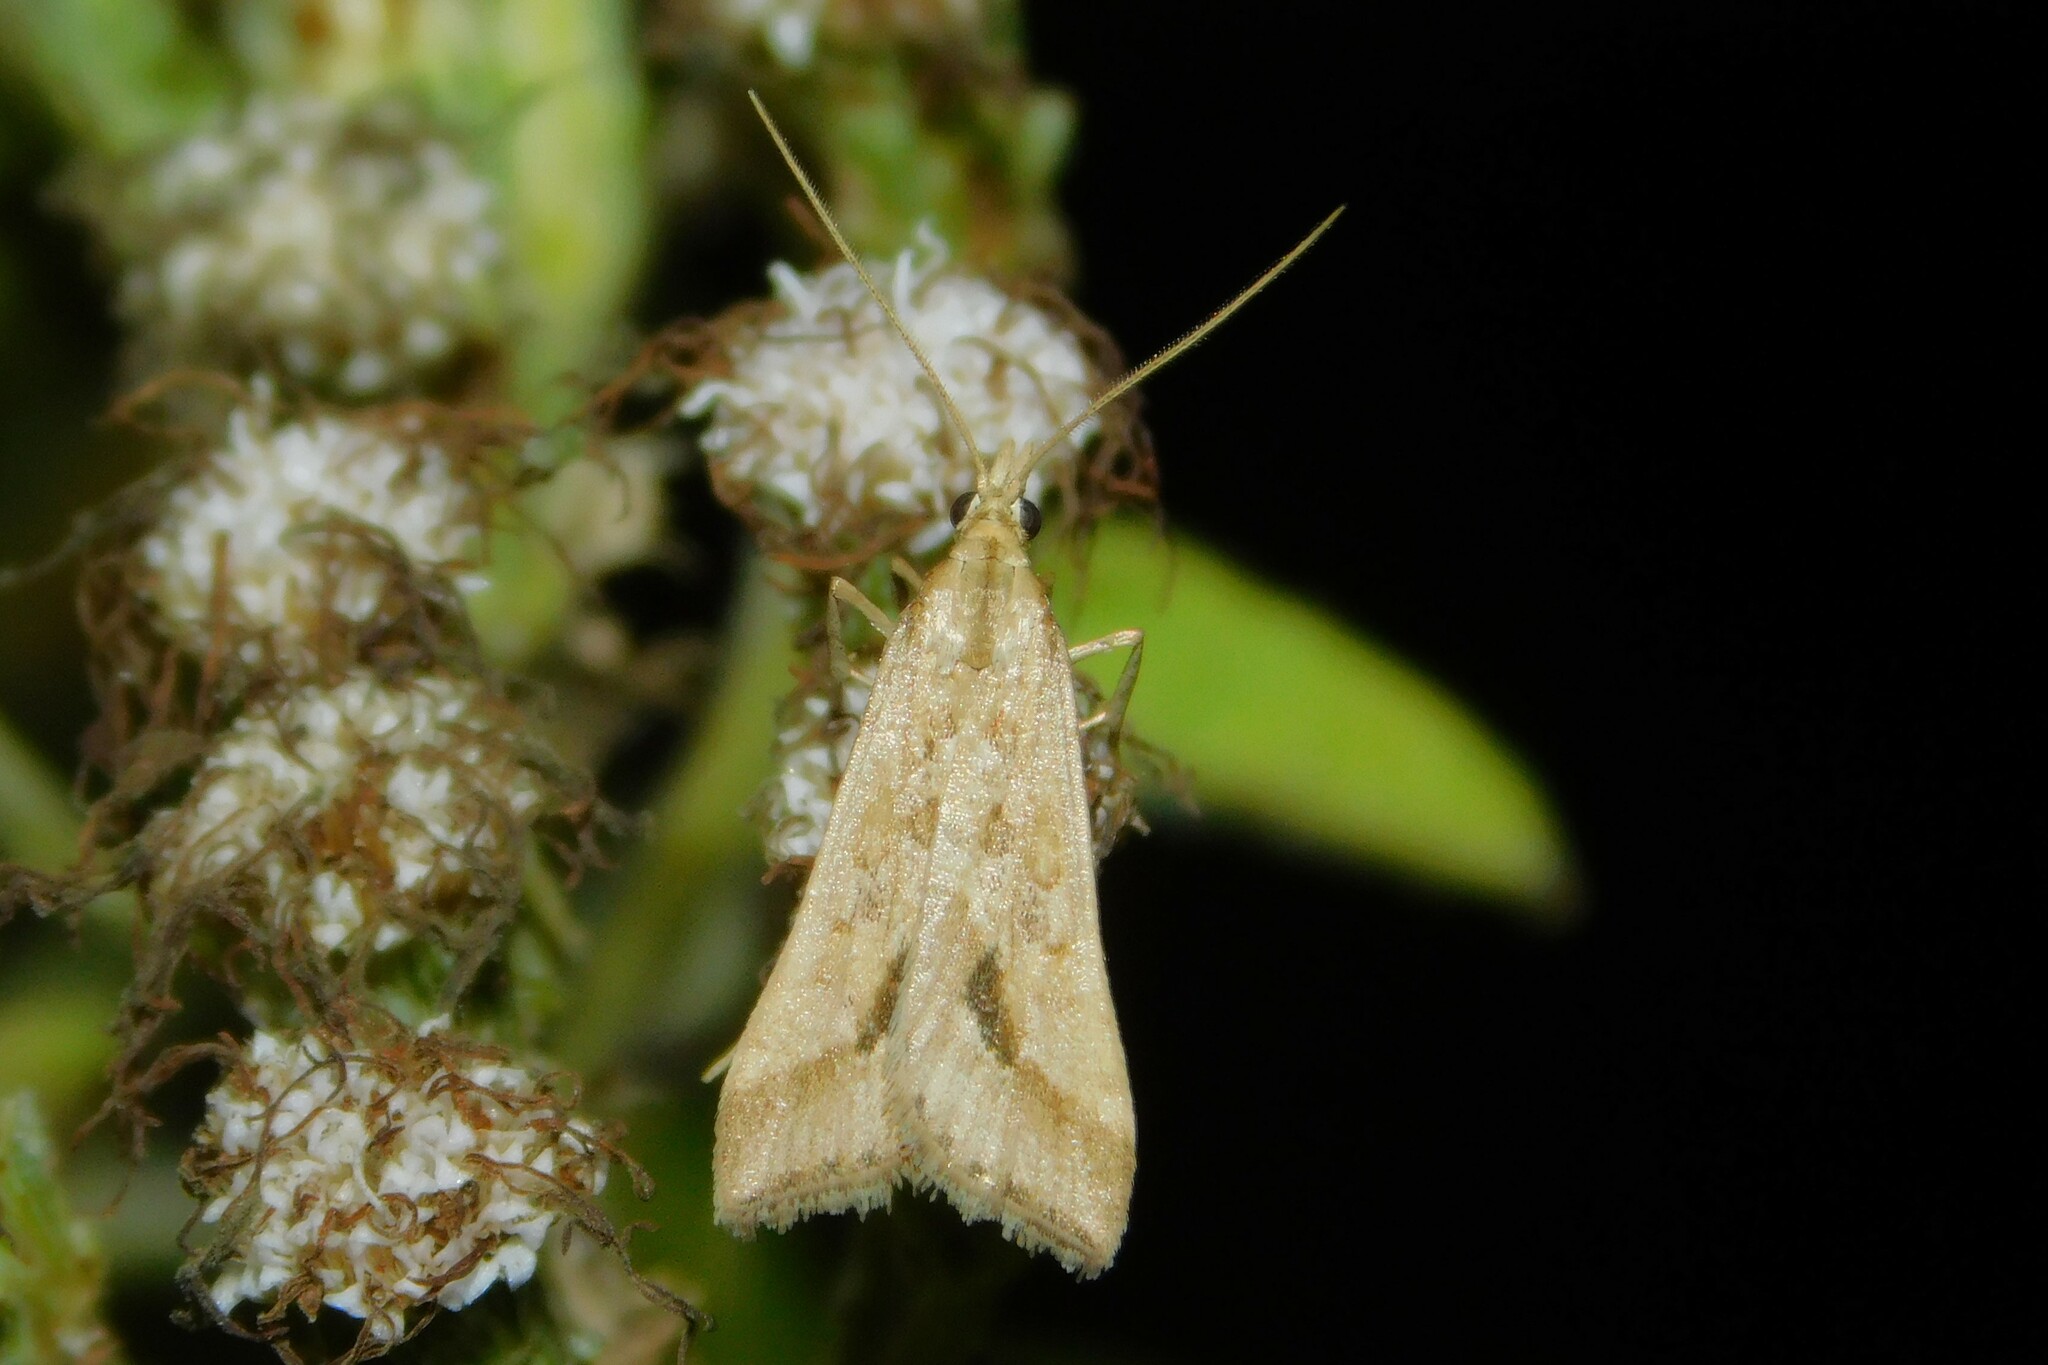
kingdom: Animalia
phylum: Arthropoda
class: Insecta
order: Lepidoptera
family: Crambidae
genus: Diasemia
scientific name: Diasemia monostigma
